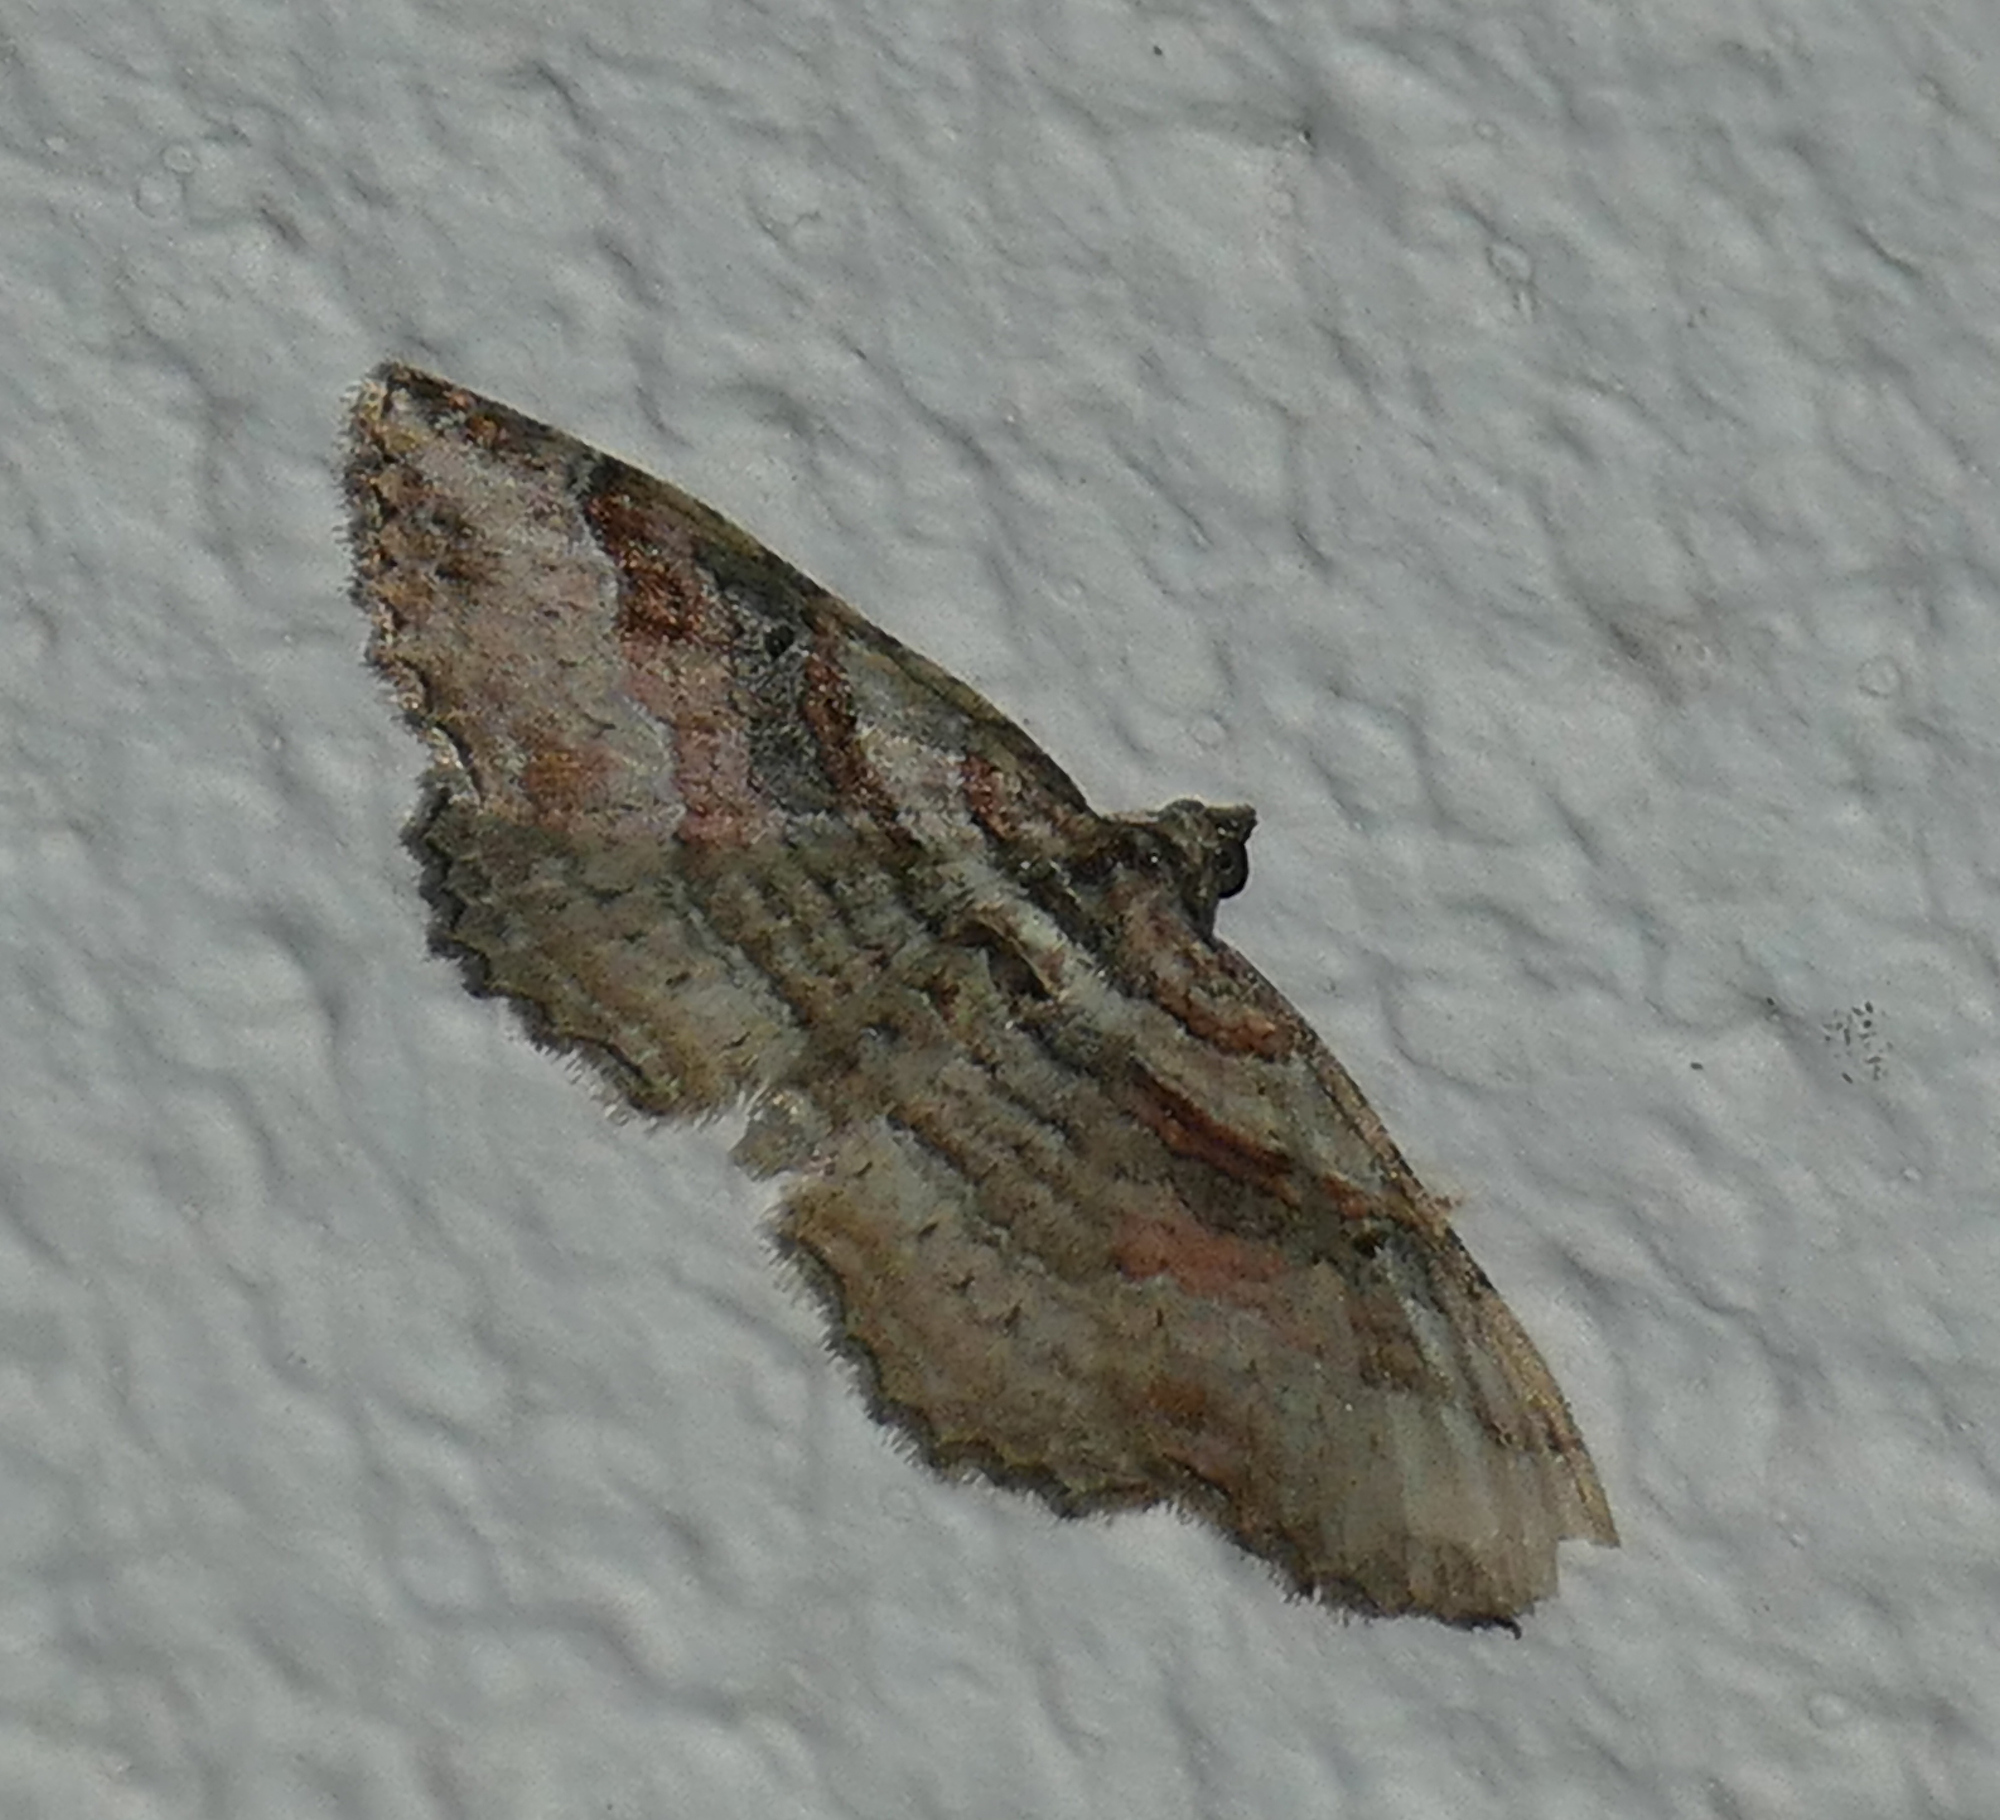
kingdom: Animalia
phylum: Arthropoda
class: Insecta
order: Lepidoptera
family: Geometridae
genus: Costaconvexa
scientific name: Costaconvexa centrostrigaria
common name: Bent-line carpet
